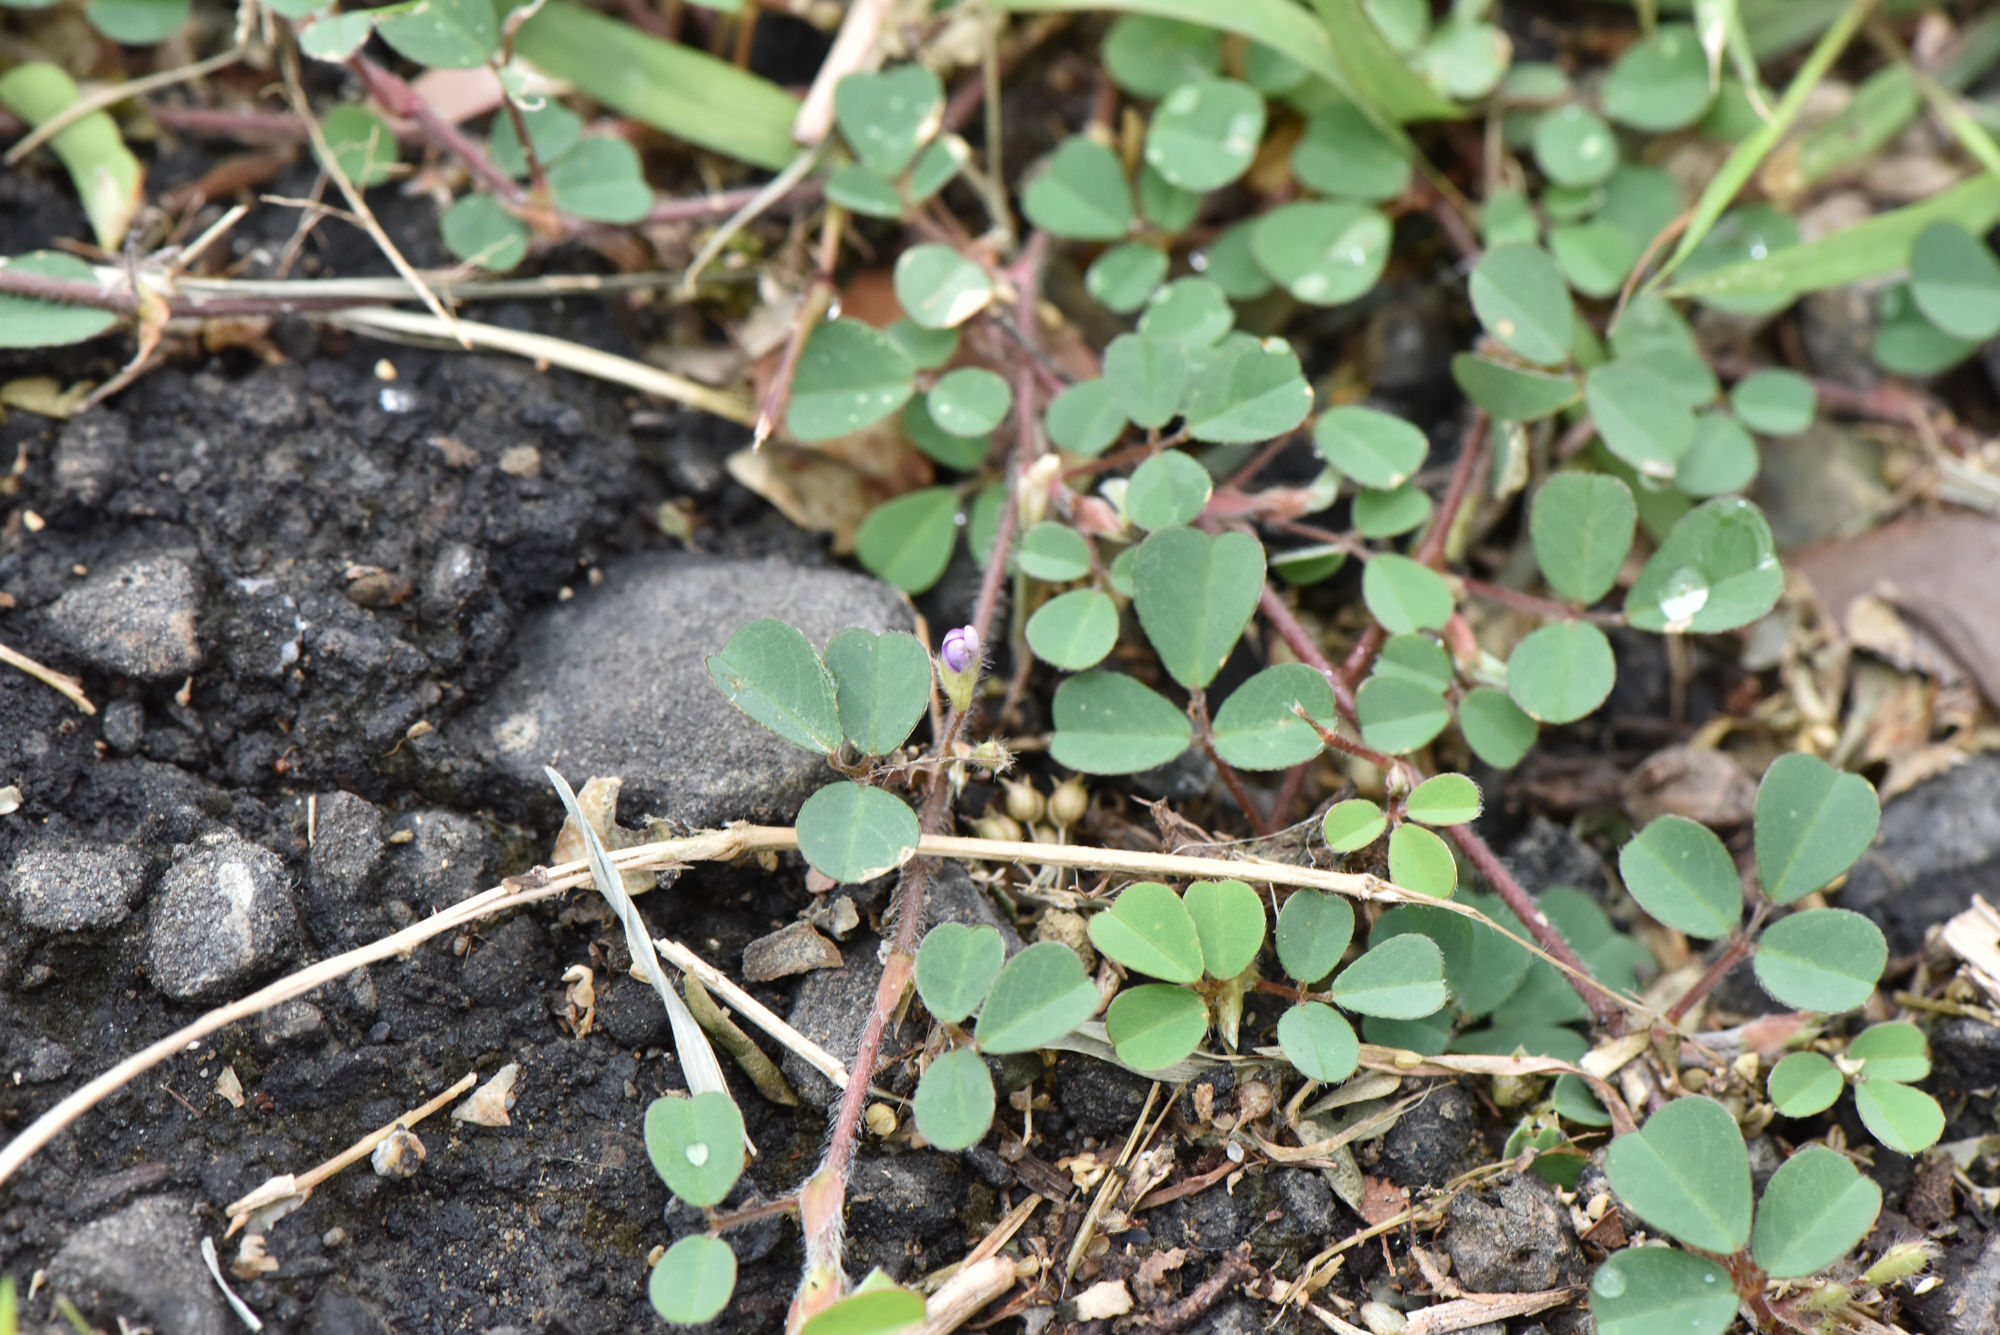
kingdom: Plantae
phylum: Tracheophyta
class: Magnoliopsida
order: Fabales
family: Fabaceae
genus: Grona
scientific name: Grona triflora
